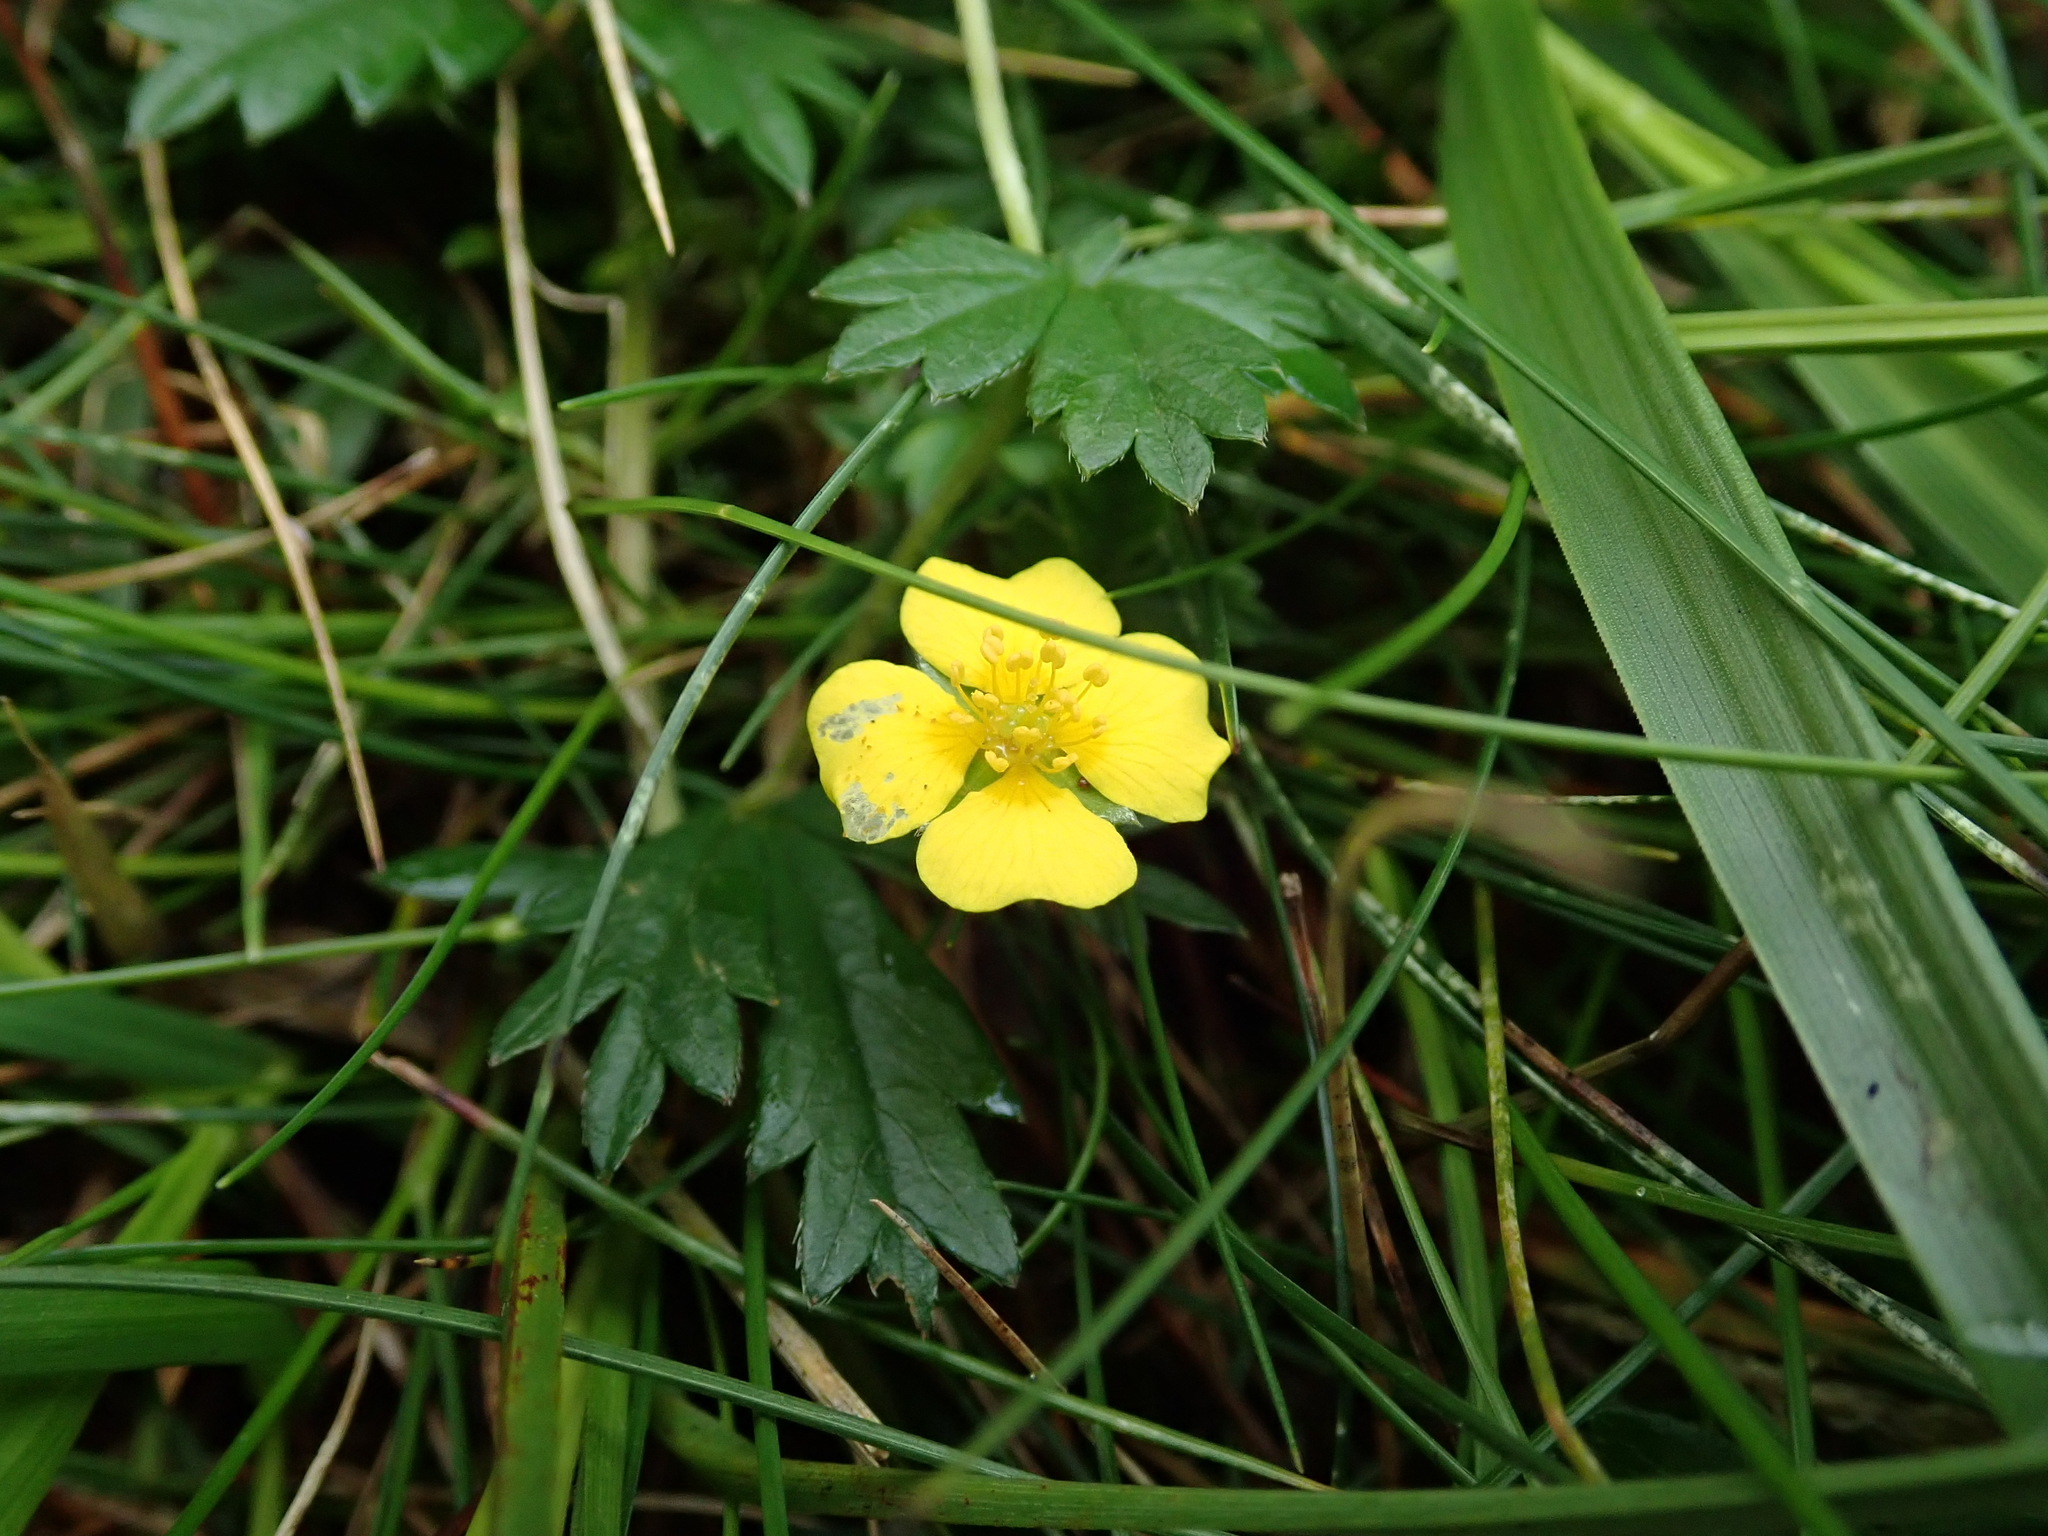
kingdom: Plantae
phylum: Tracheophyta
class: Magnoliopsida
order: Rosales
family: Rosaceae
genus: Potentilla
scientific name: Potentilla erecta
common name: Tormentil
